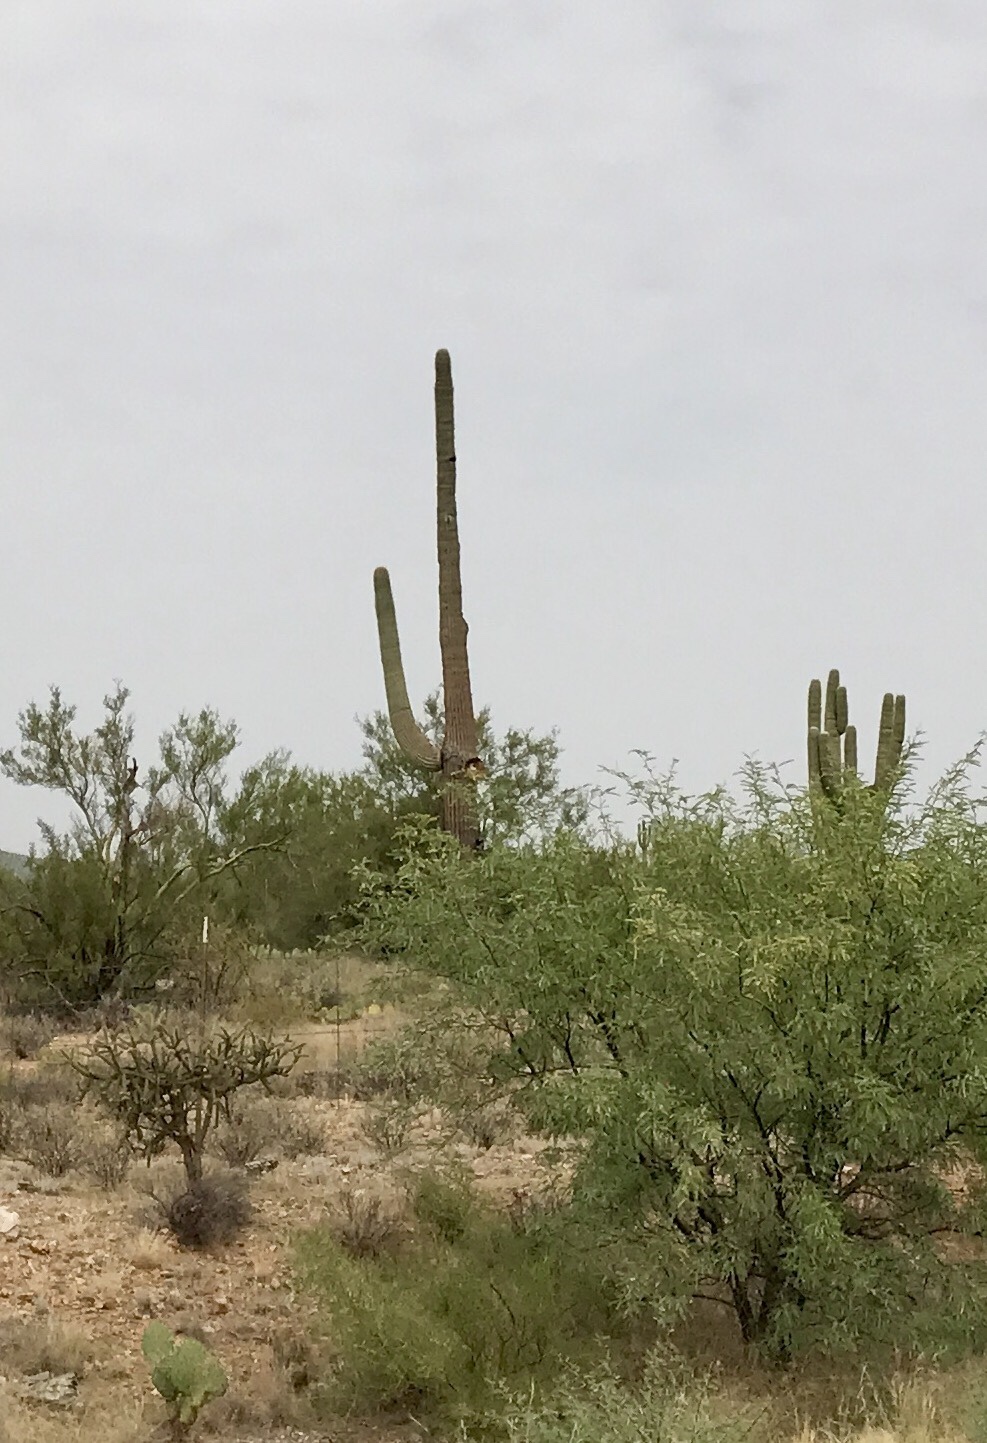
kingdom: Plantae
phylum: Tracheophyta
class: Magnoliopsida
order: Caryophyllales
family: Cactaceae
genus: Carnegiea
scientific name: Carnegiea gigantea
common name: Saguaro
